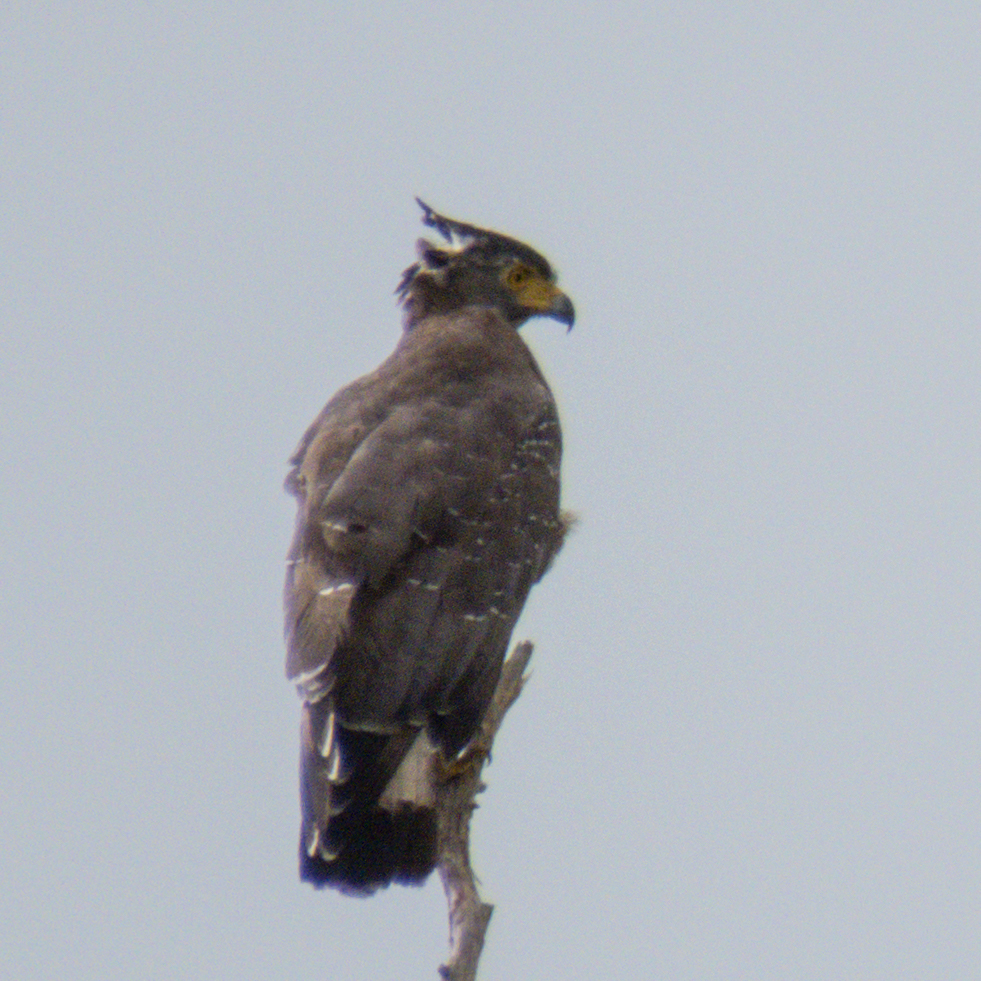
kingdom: Animalia
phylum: Chordata
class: Aves
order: Accipitriformes
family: Accipitridae
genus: Spilornis
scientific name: Spilornis cheela
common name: Crested serpent eagle
